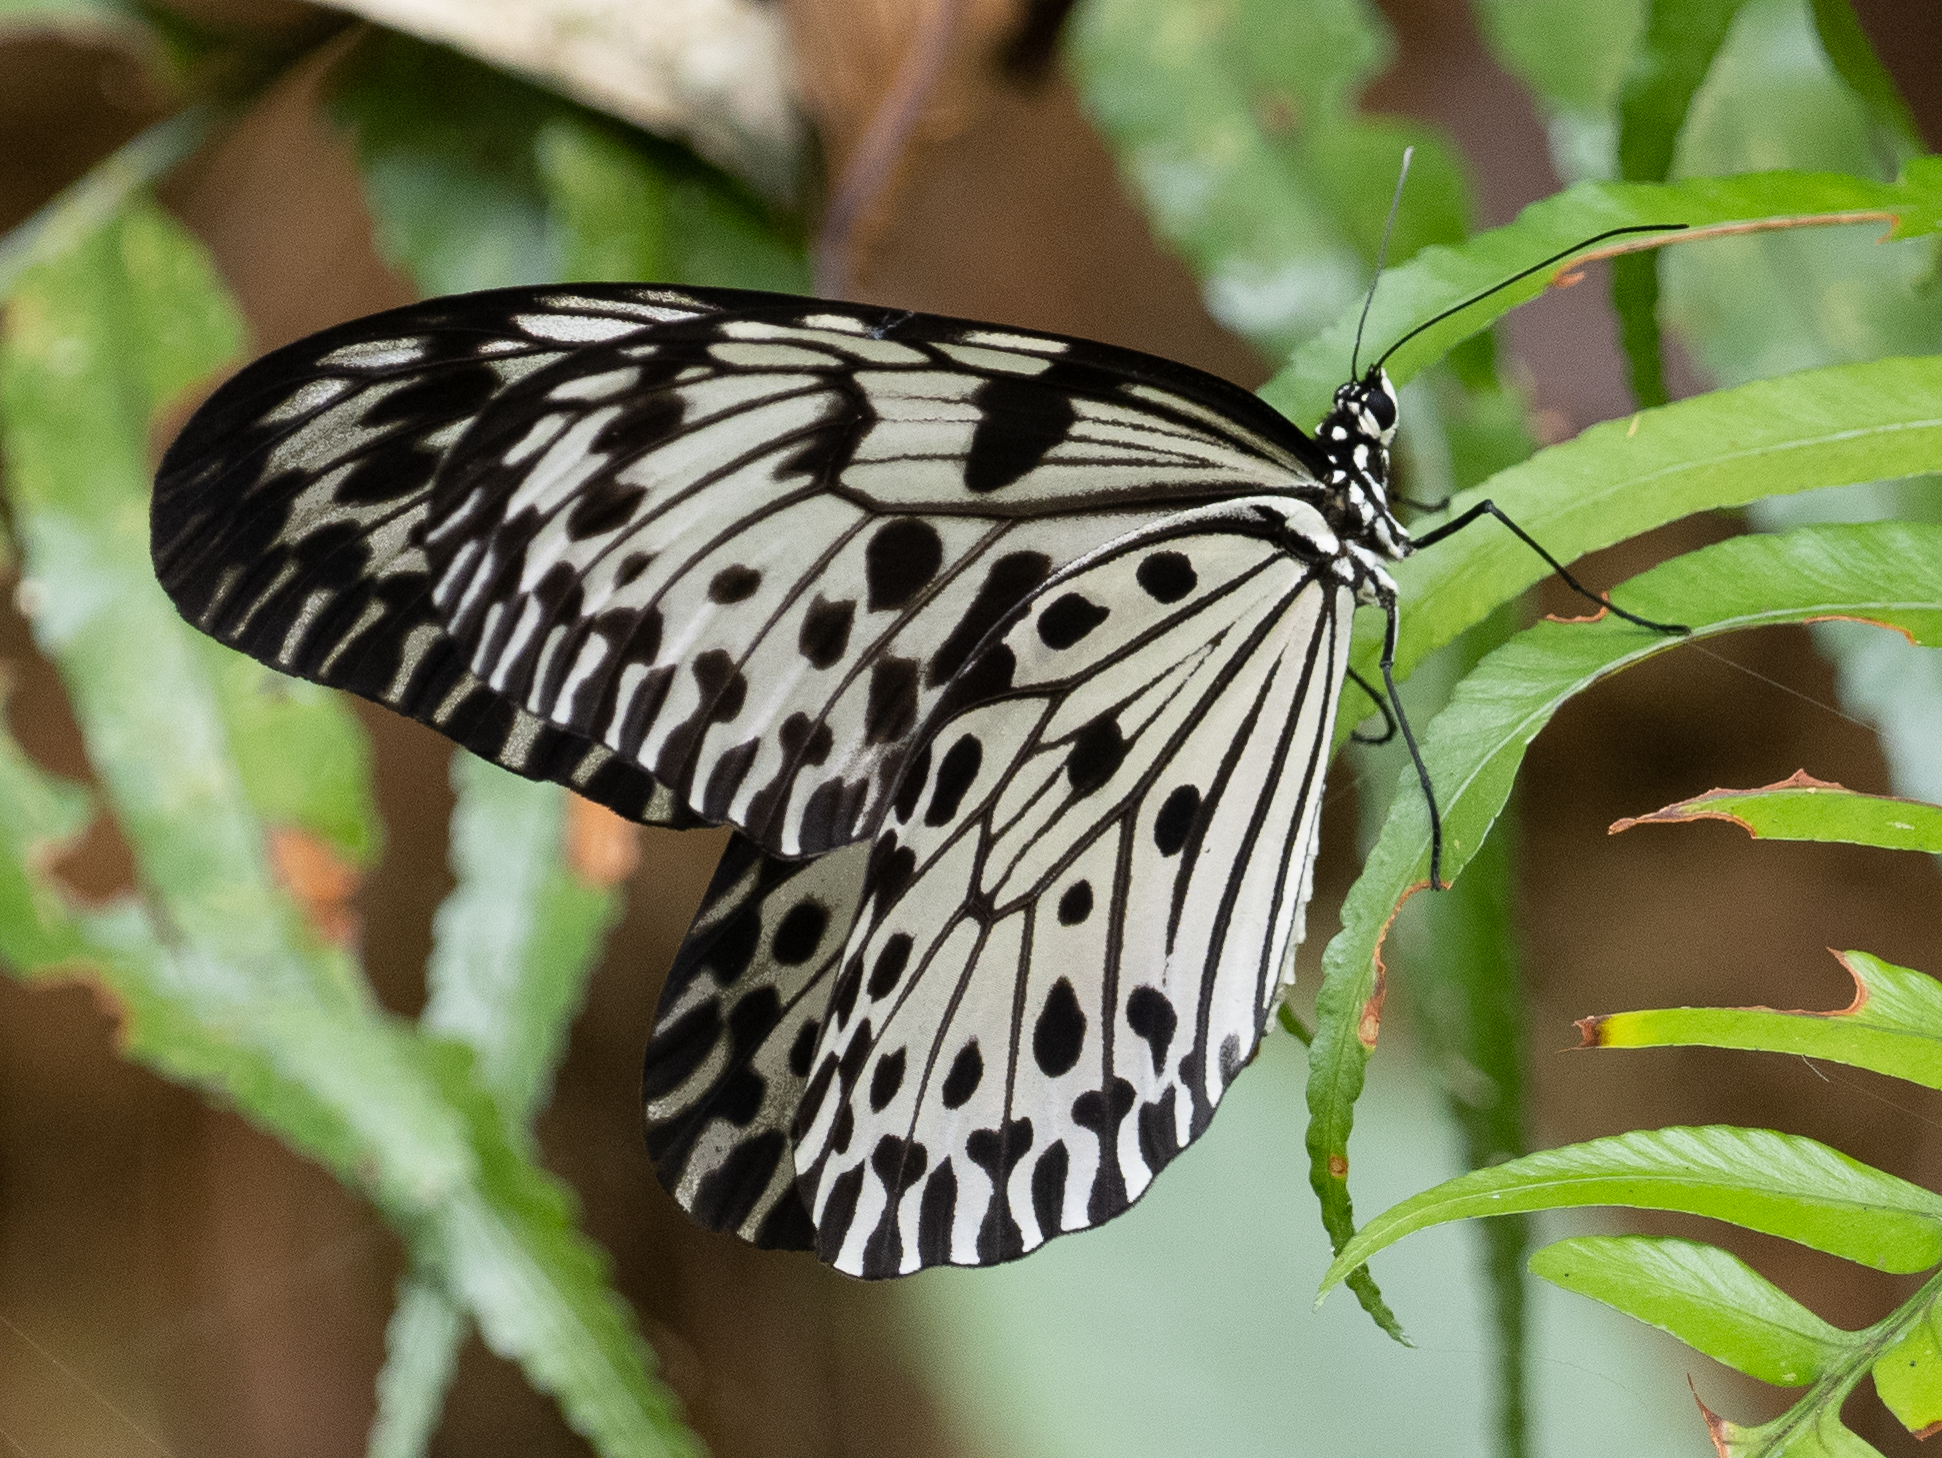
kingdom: Animalia
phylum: Arthropoda
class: Insecta
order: Lepidoptera
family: Nymphalidae
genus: Idea
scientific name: Idea iasonia
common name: Ceylon tree-nymph
